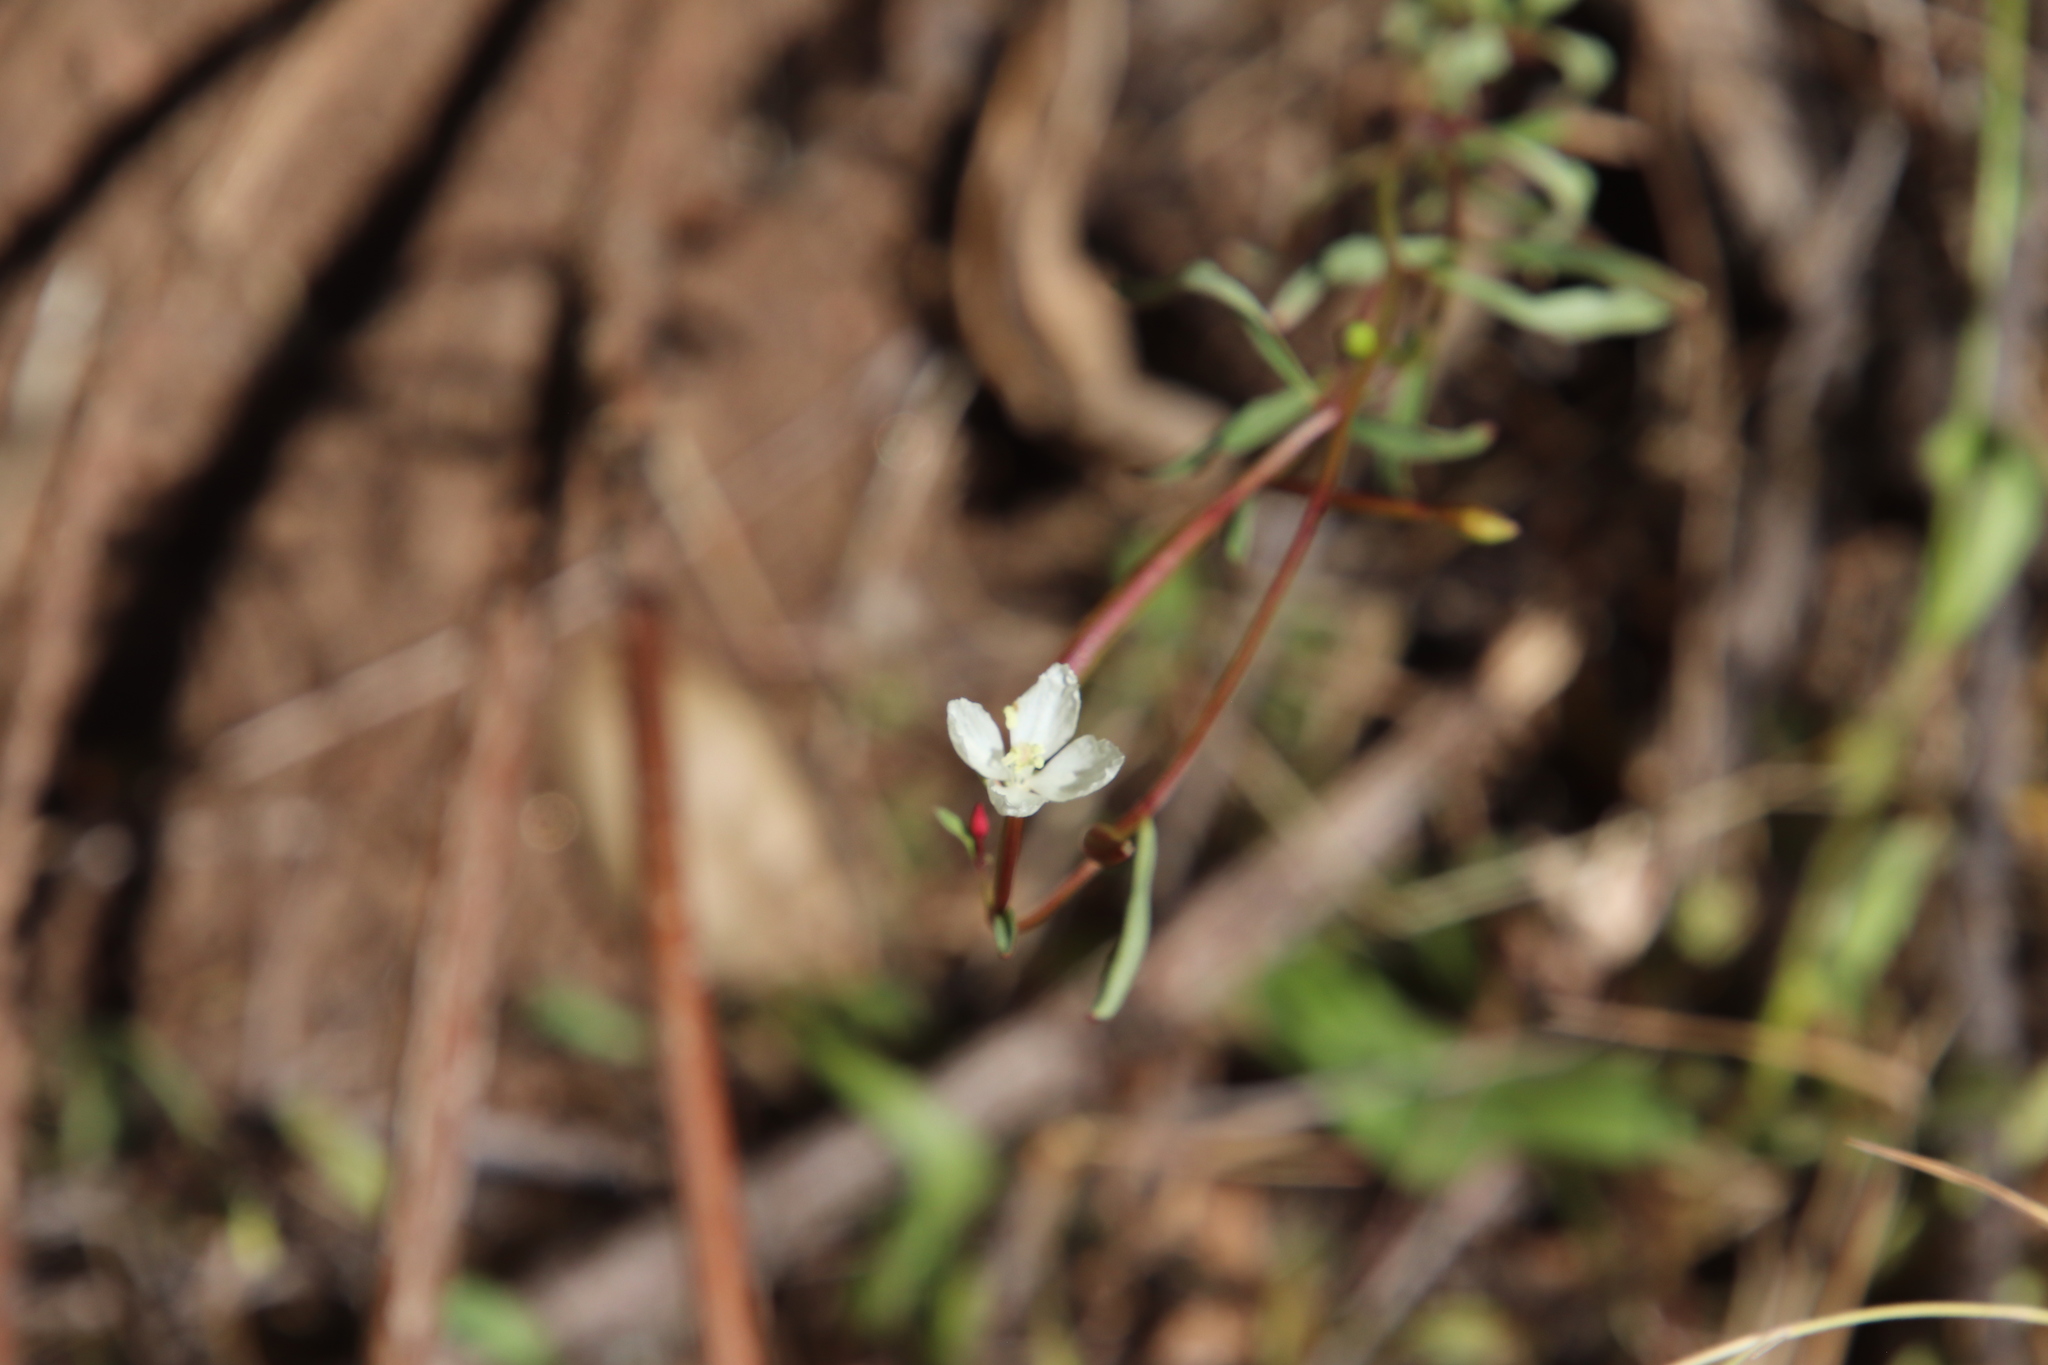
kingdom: Plantae
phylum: Tracheophyta
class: Magnoliopsida
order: Myrtales
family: Onagraceae
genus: Clarkia
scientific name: Clarkia epilobioides
